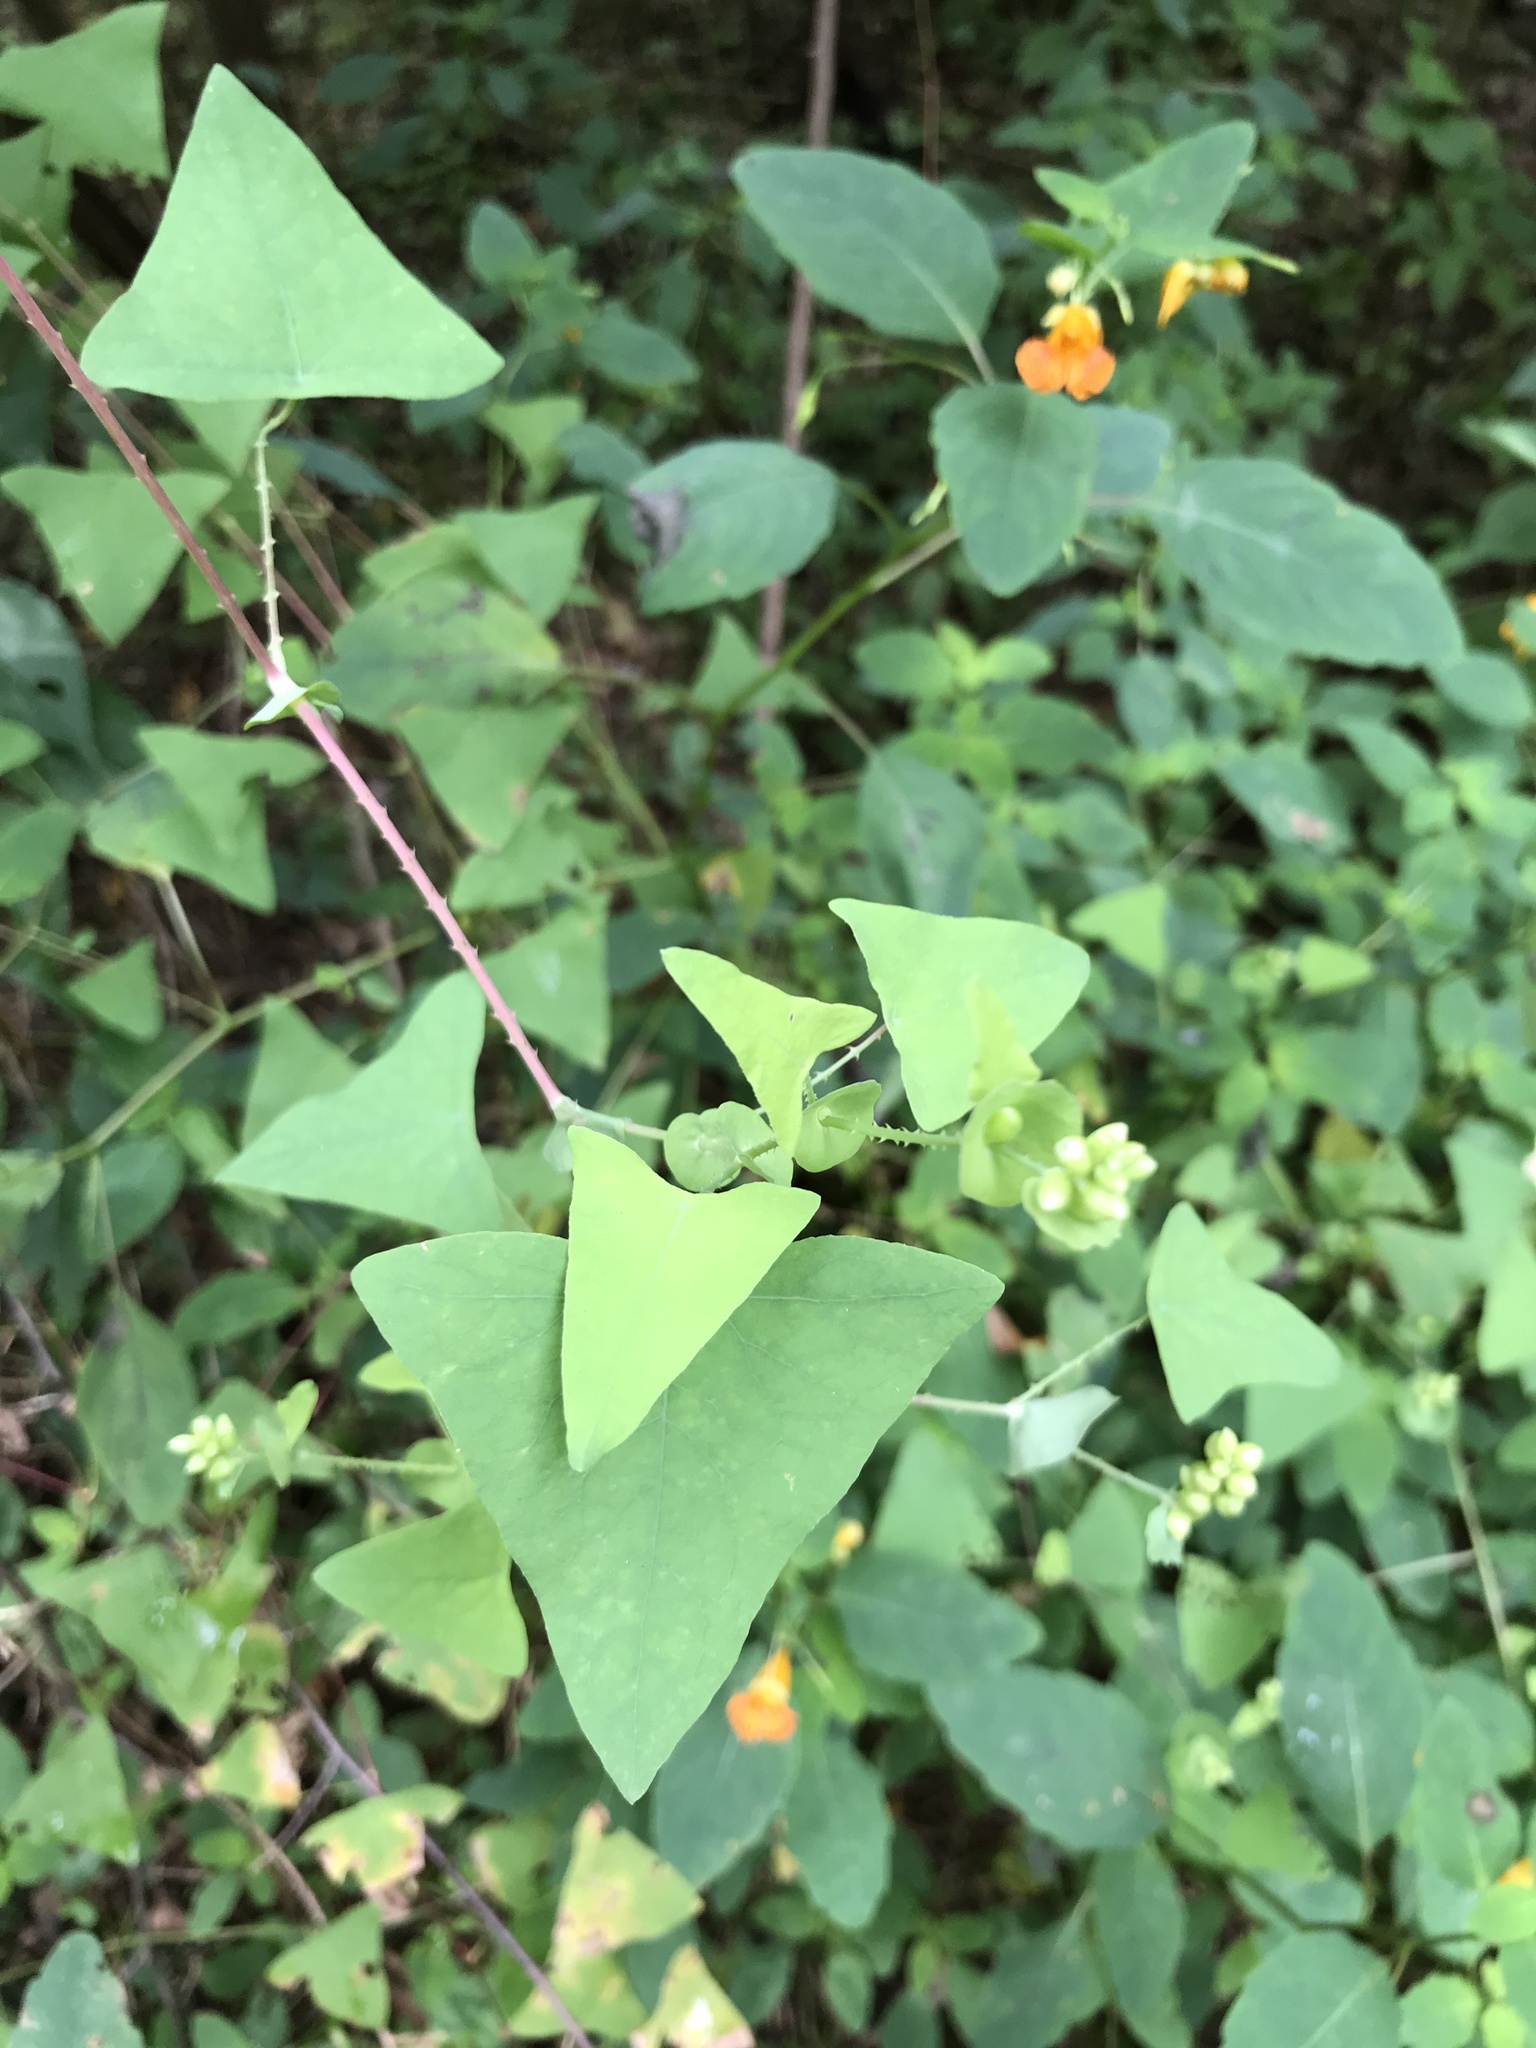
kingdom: Plantae
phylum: Tracheophyta
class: Magnoliopsida
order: Caryophyllales
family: Polygonaceae
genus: Persicaria
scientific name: Persicaria perfoliata
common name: Asiatic tearthumb
